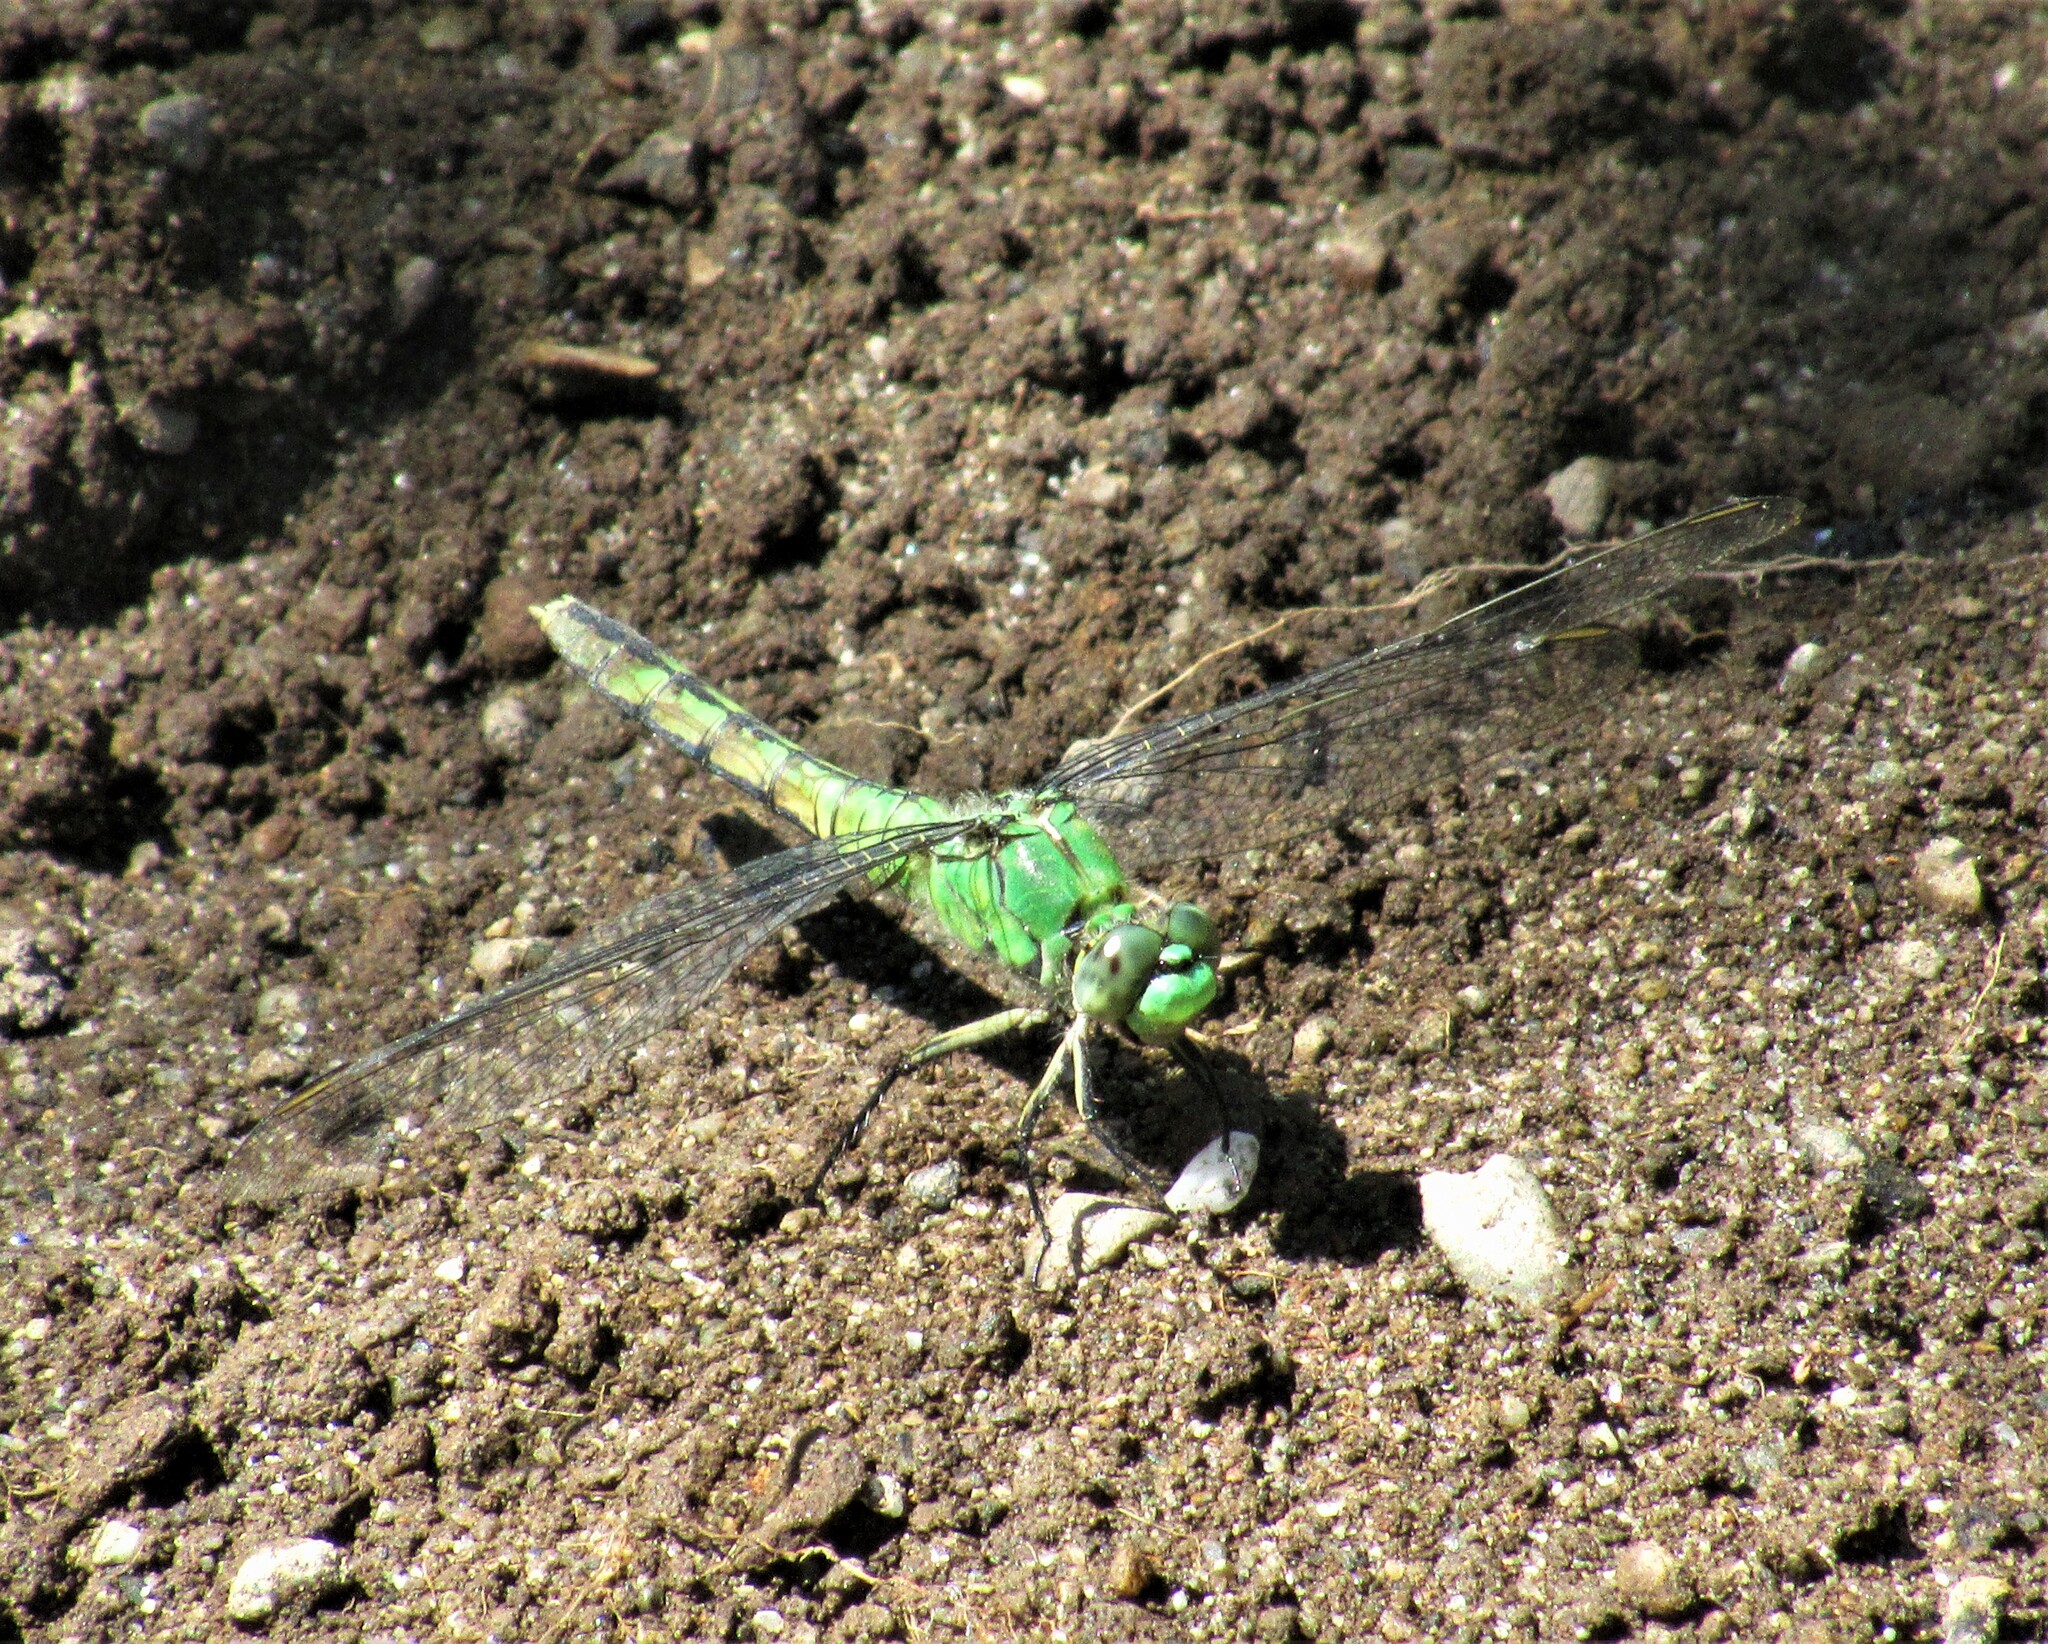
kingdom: Animalia
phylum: Arthropoda
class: Insecta
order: Odonata
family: Libellulidae
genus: Erythemis
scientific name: Erythemis collocata
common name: Western pondhawk
